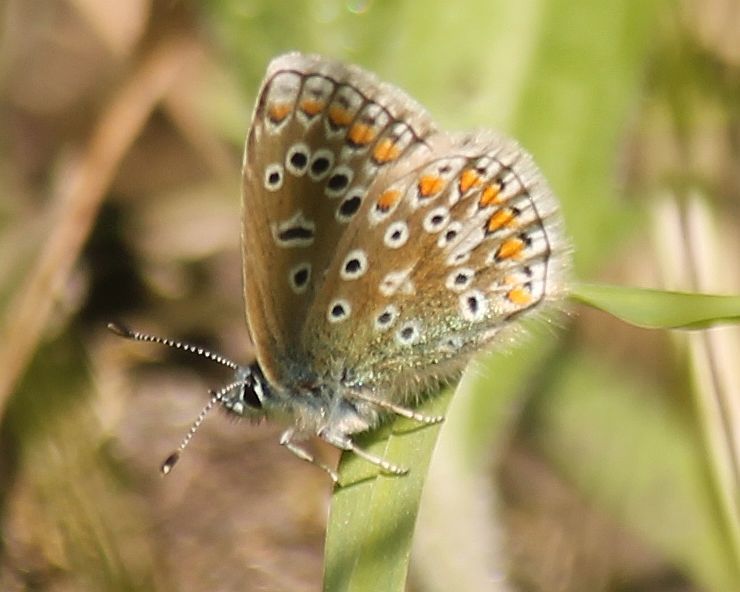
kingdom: Animalia
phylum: Arthropoda
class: Insecta
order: Lepidoptera
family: Lycaenidae
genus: Polyommatus
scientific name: Polyommatus icarus
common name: Common blue
